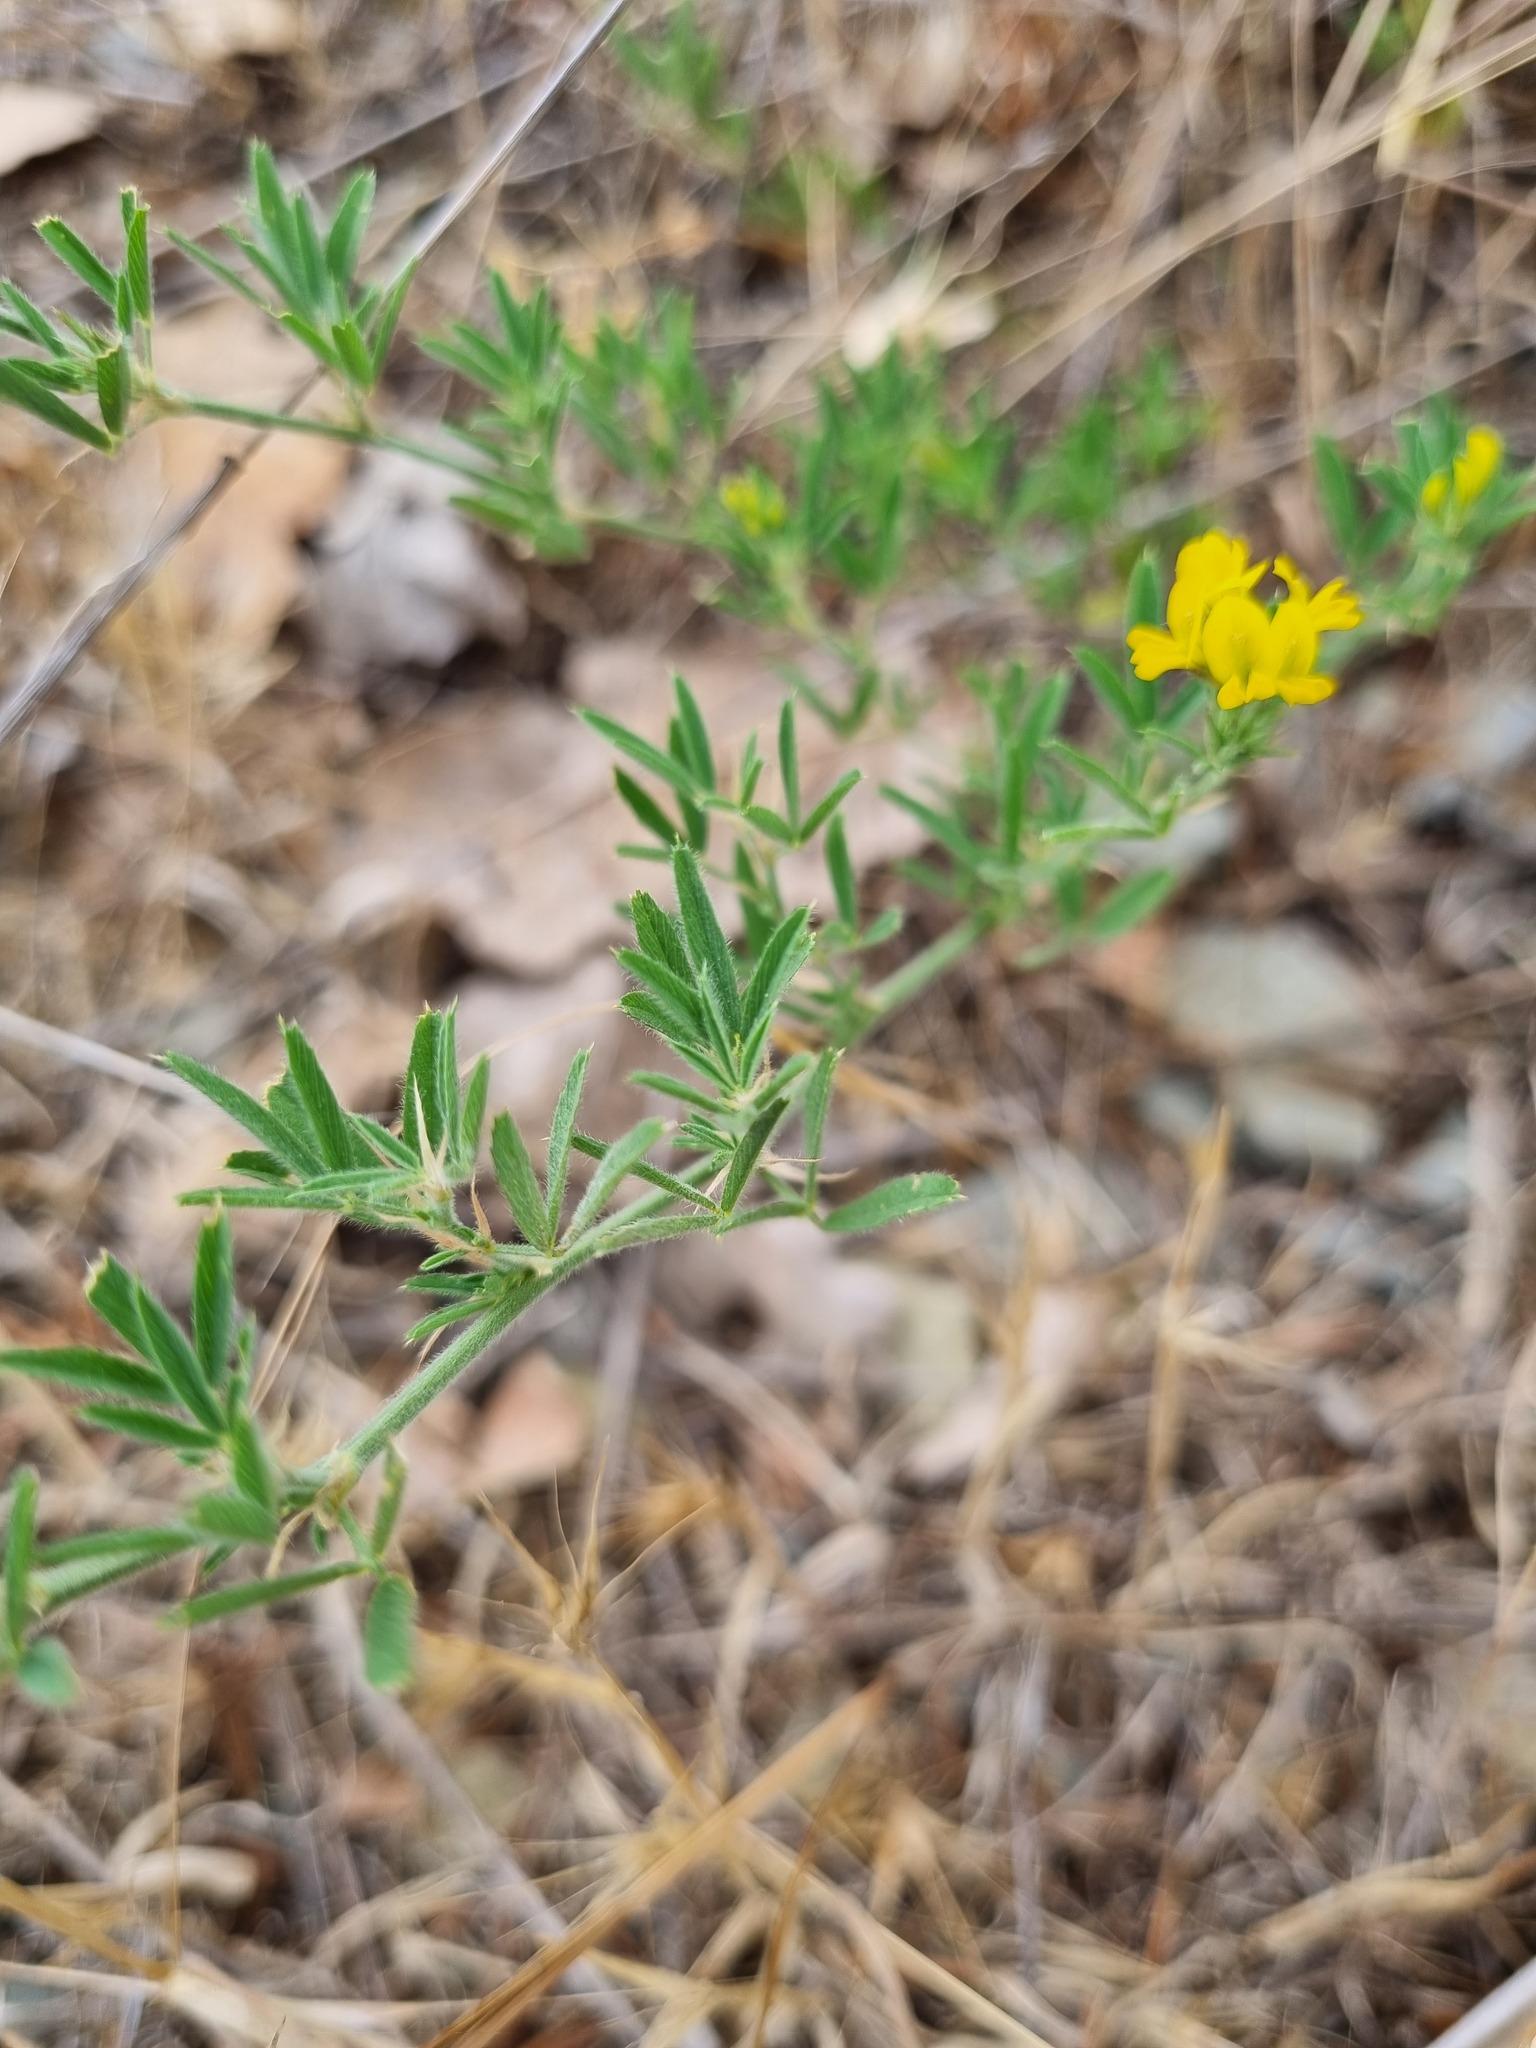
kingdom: Plantae
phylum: Tracheophyta
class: Magnoliopsida
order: Fabales
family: Fabaceae
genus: Medicago
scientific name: Medicago falcata
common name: Sickle medick
